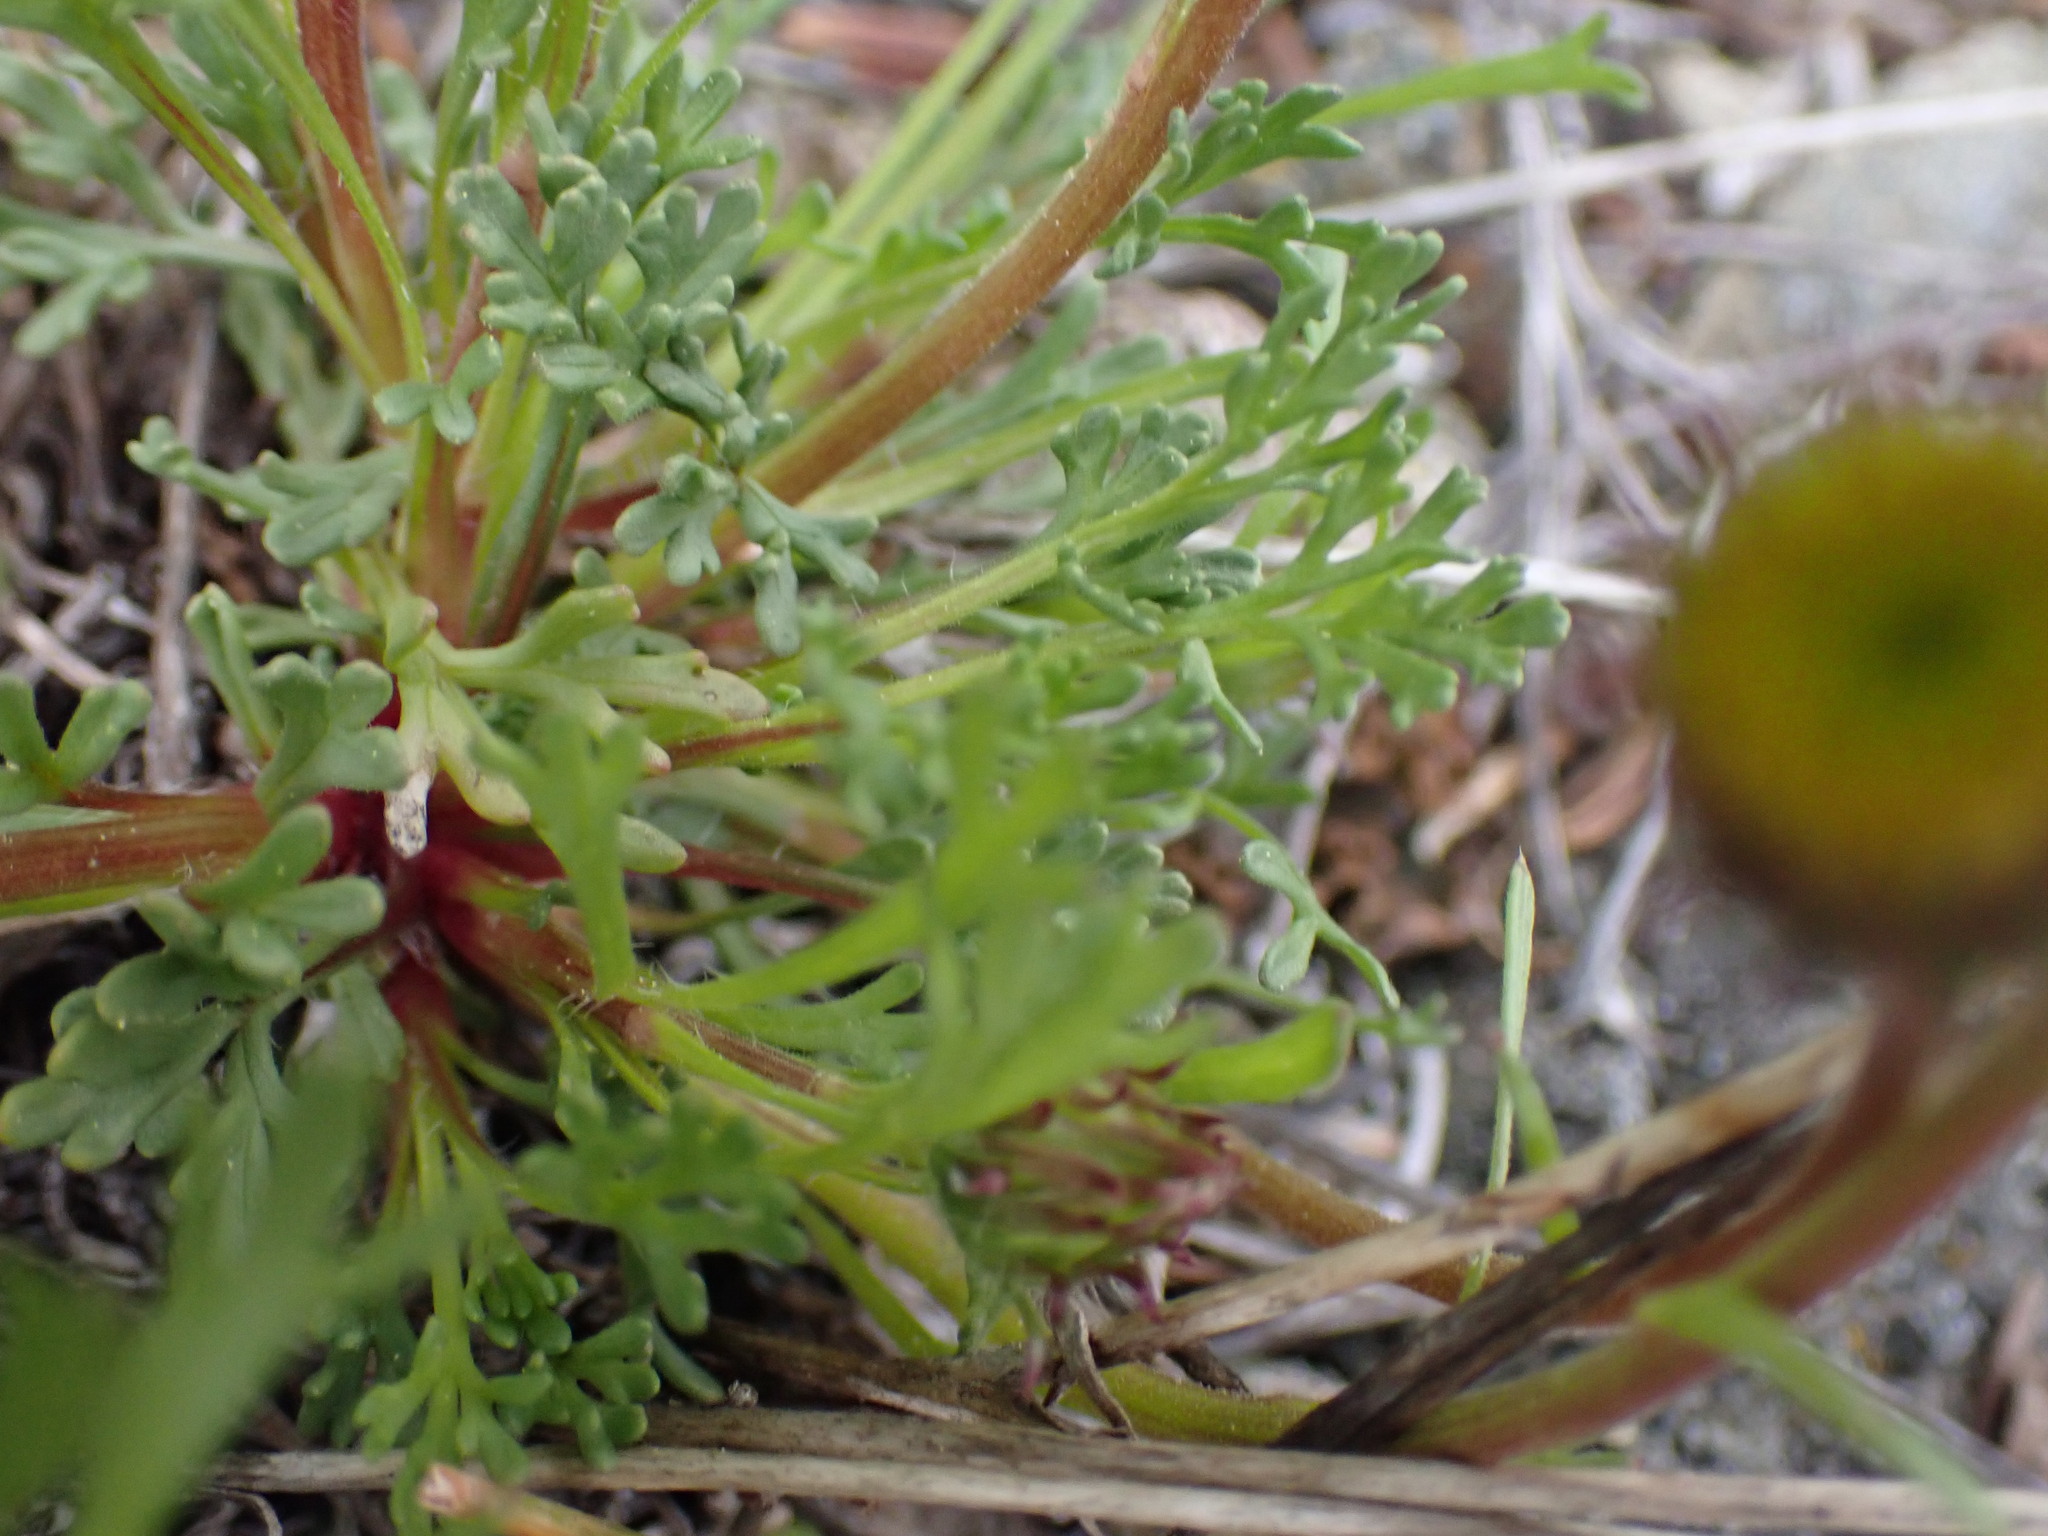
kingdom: Plantae
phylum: Tracheophyta
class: Magnoliopsida
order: Asterales
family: Asteraceae
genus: Erigeron
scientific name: Erigeron compositus
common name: Dwarf mountain fleabane
